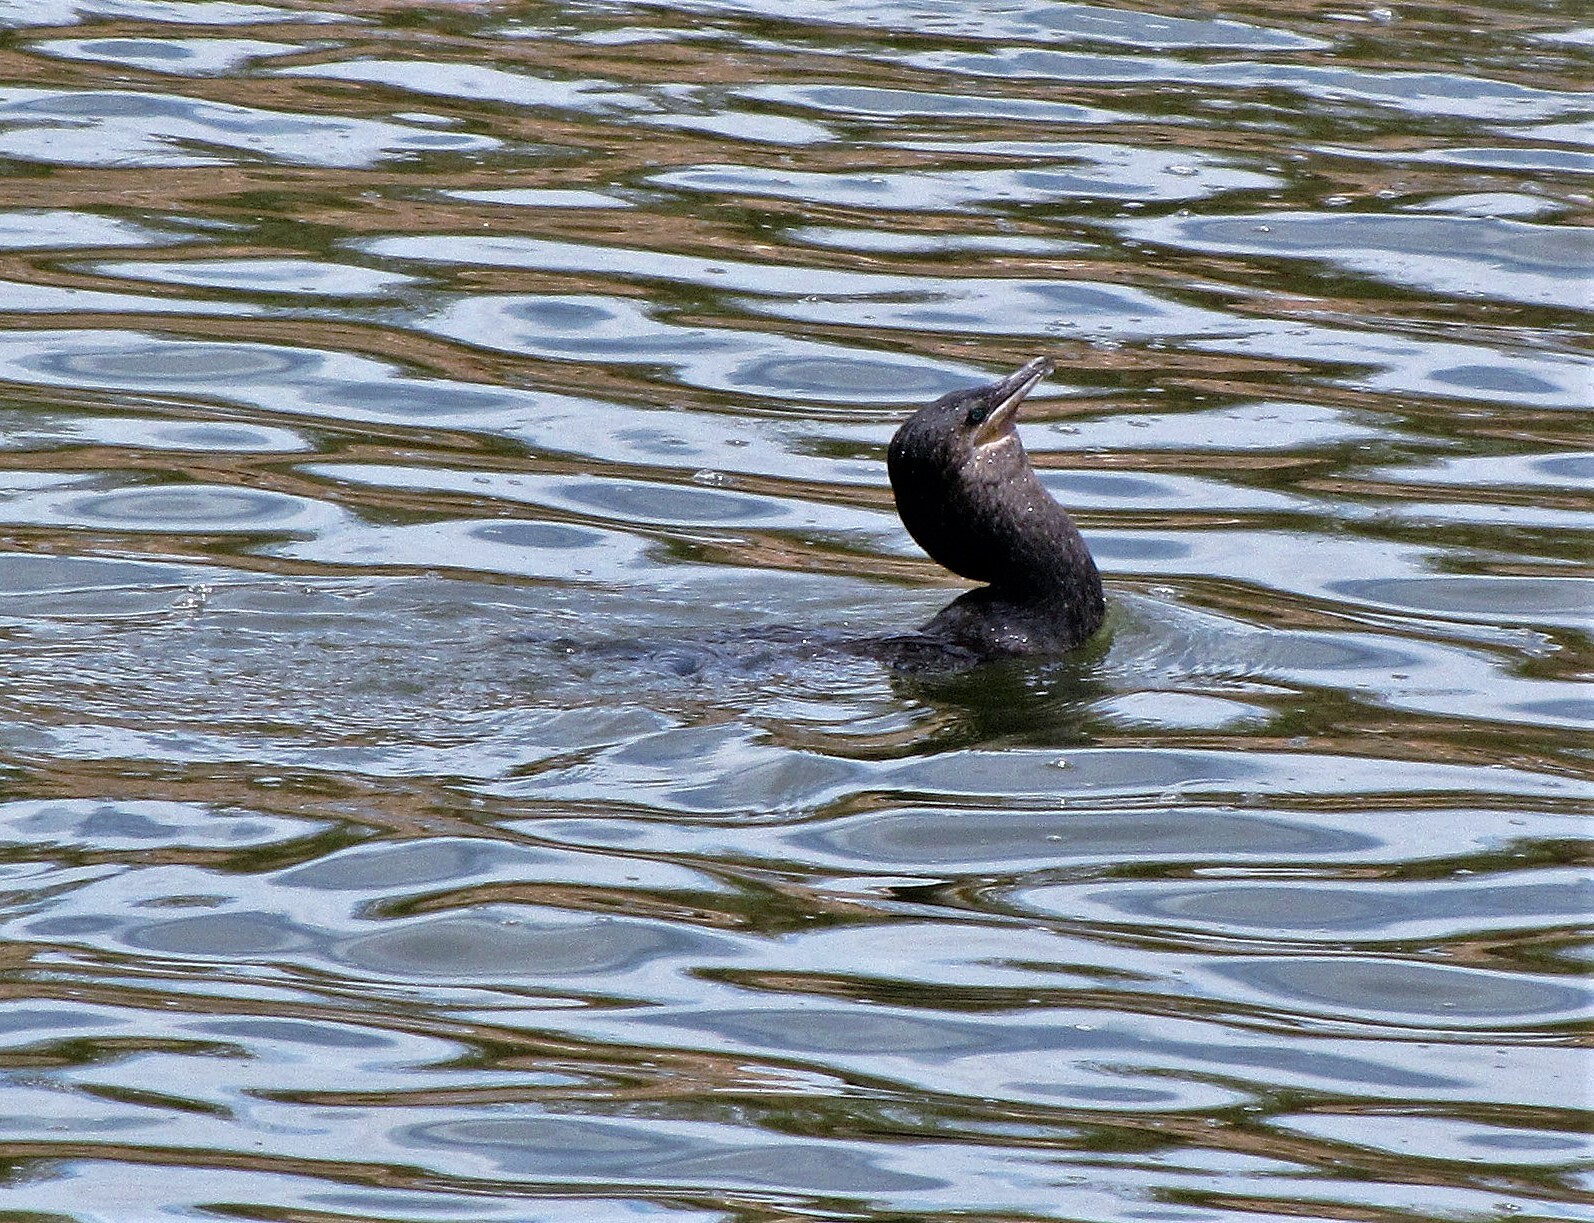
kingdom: Animalia
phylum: Chordata
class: Aves
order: Suliformes
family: Phalacrocoracidae
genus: Phalacrocorax
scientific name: Phalacrocorax brasilianus
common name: Neotropic cormorant
